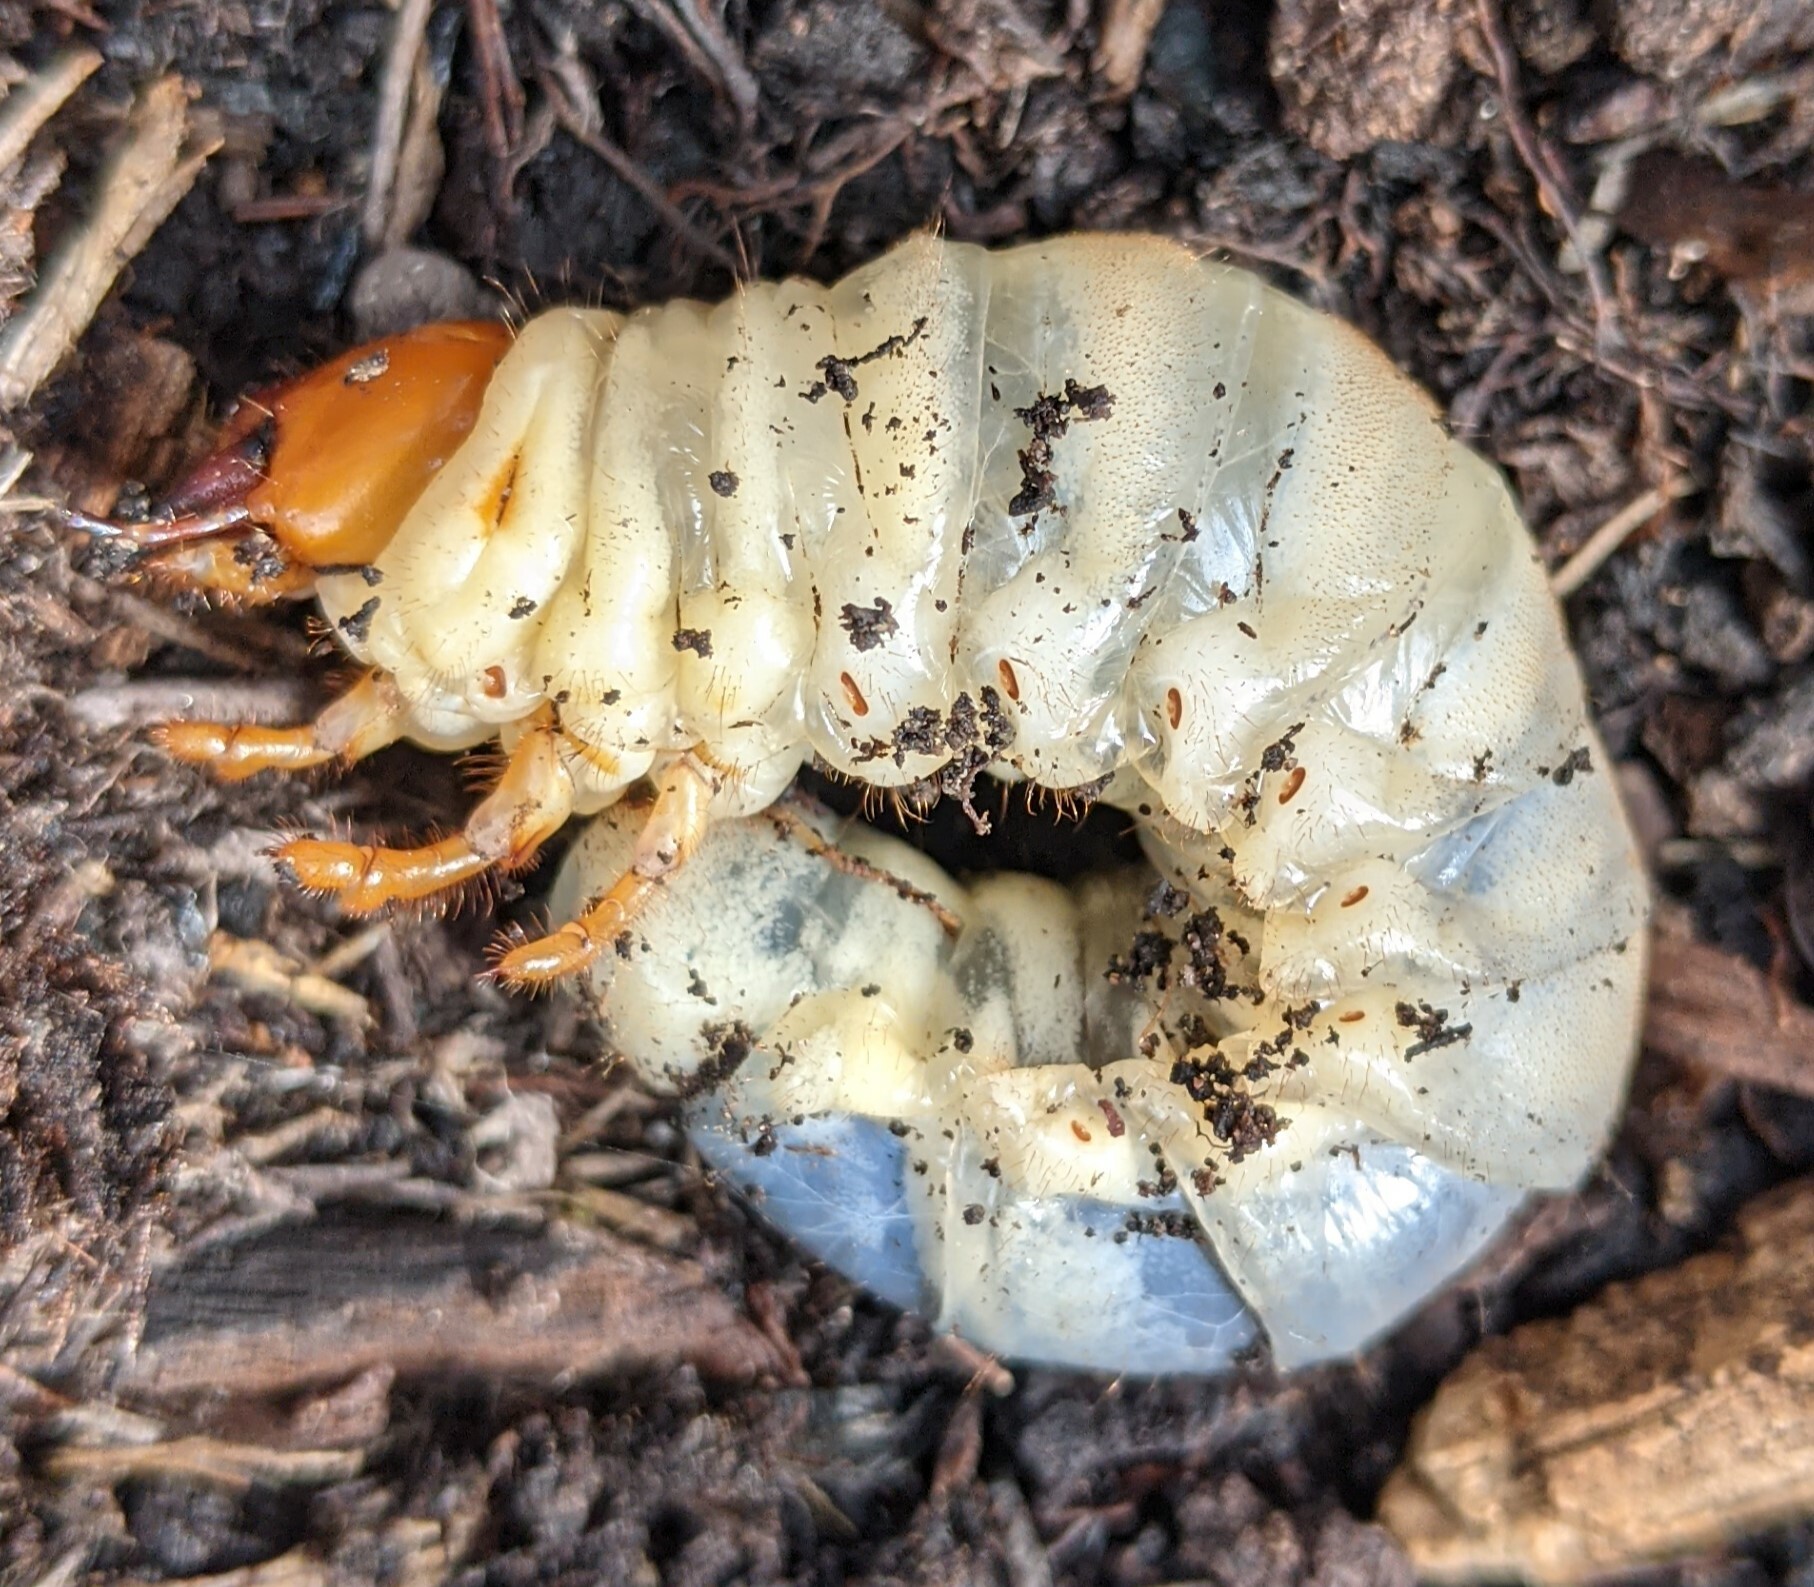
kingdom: Animalia
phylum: Arthropoda
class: Insecta
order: Coleoptera
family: Lucanidae
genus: Lucanus
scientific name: Lucanus cervus
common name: Stag beetle
